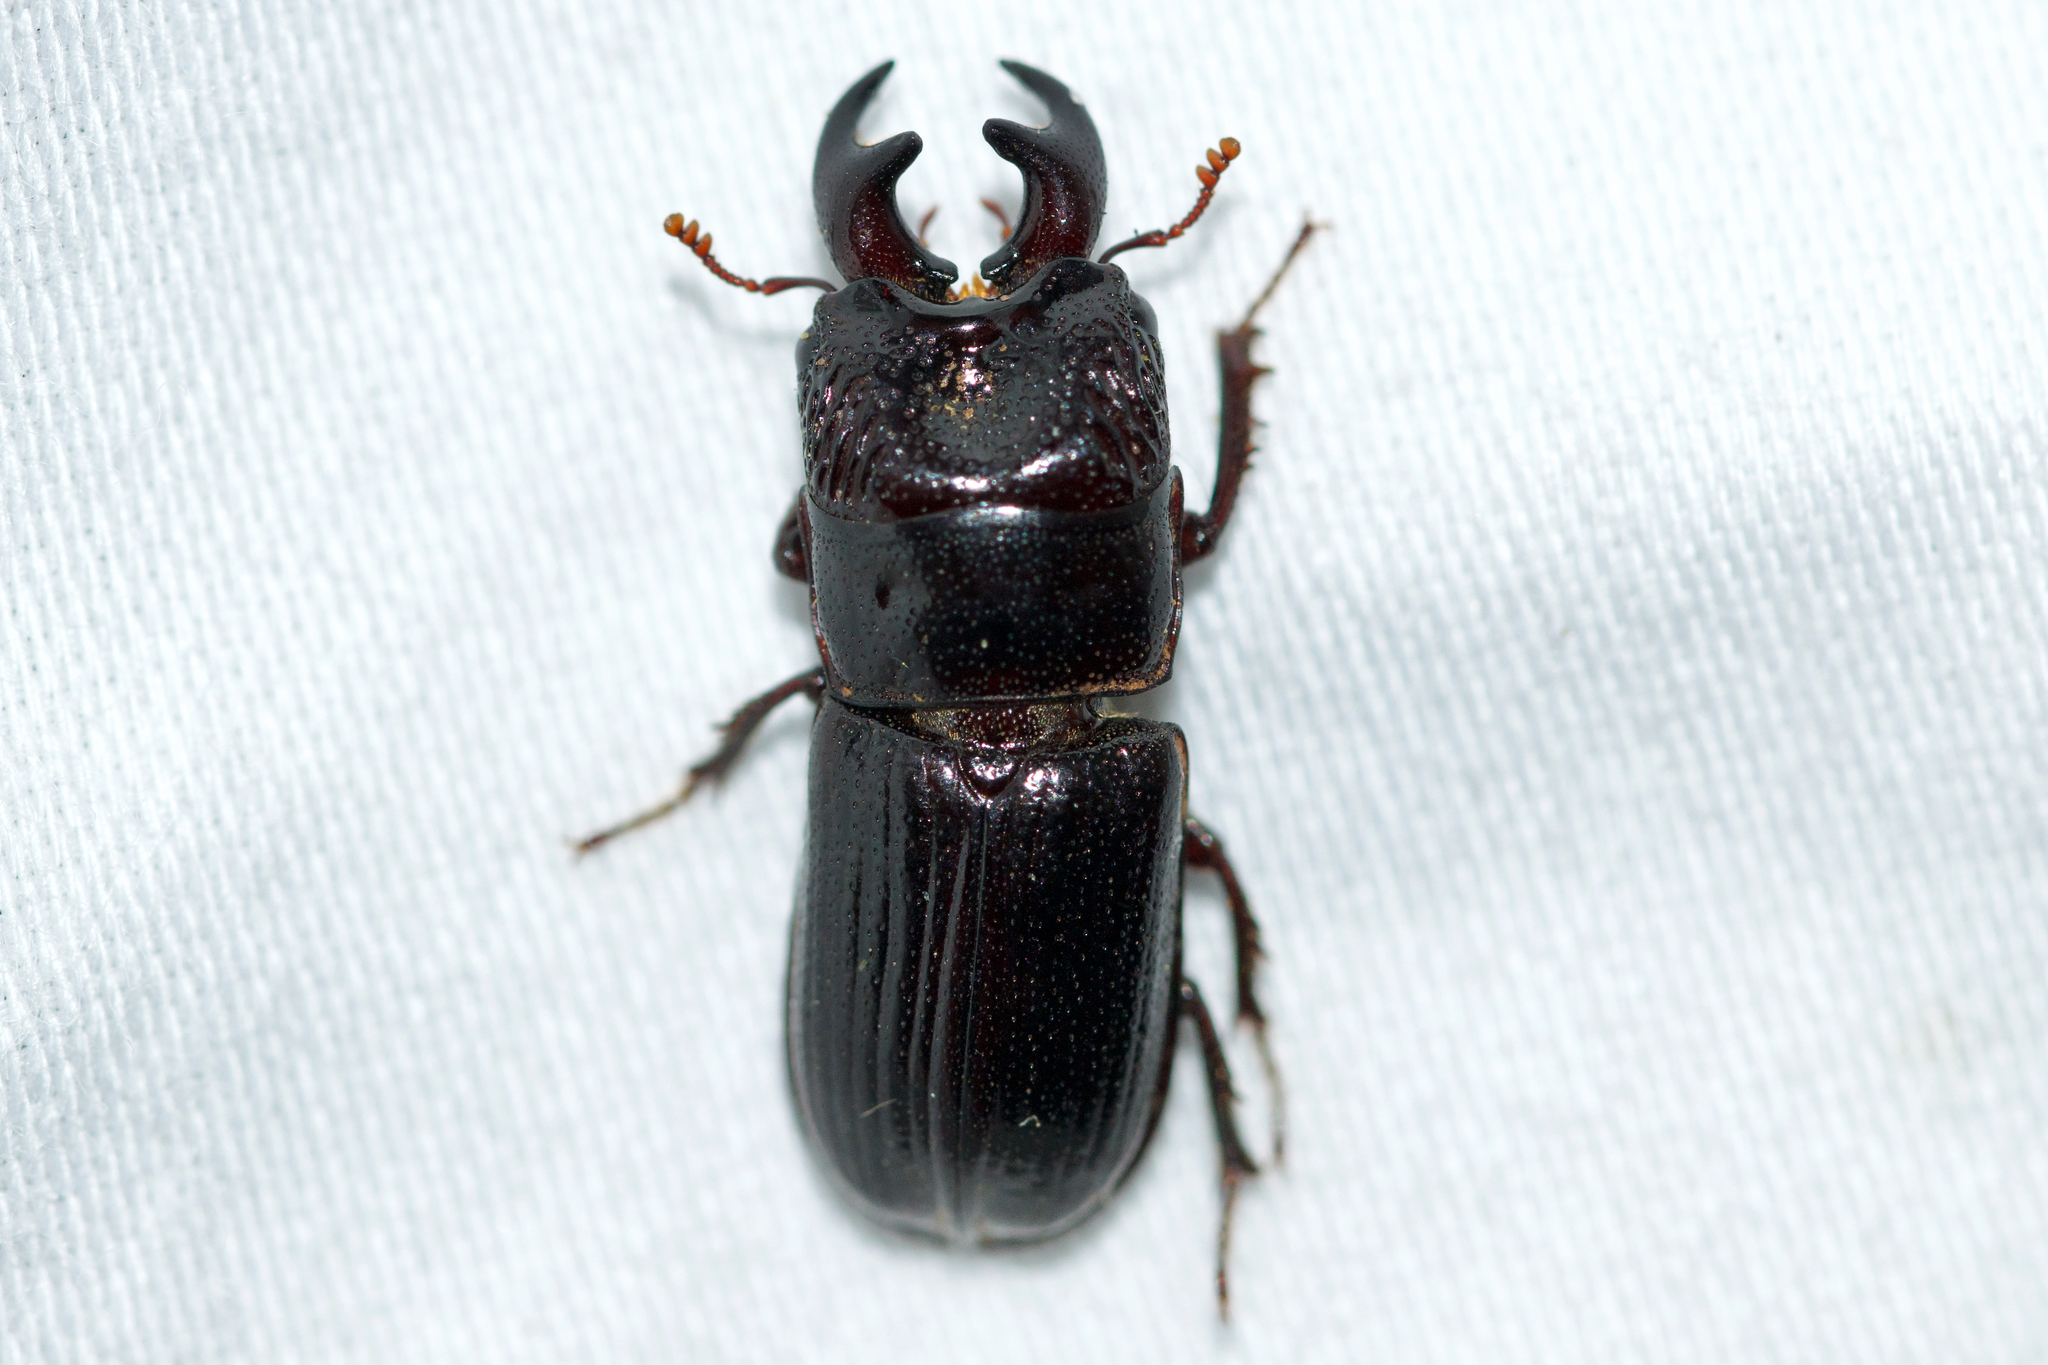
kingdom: Animalia
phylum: Arthropoda
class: Insecta
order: Coleoptera
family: Lucanidae
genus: Ceruchus
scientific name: Ceruchus piceus
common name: Red-rot decay stag beetle
